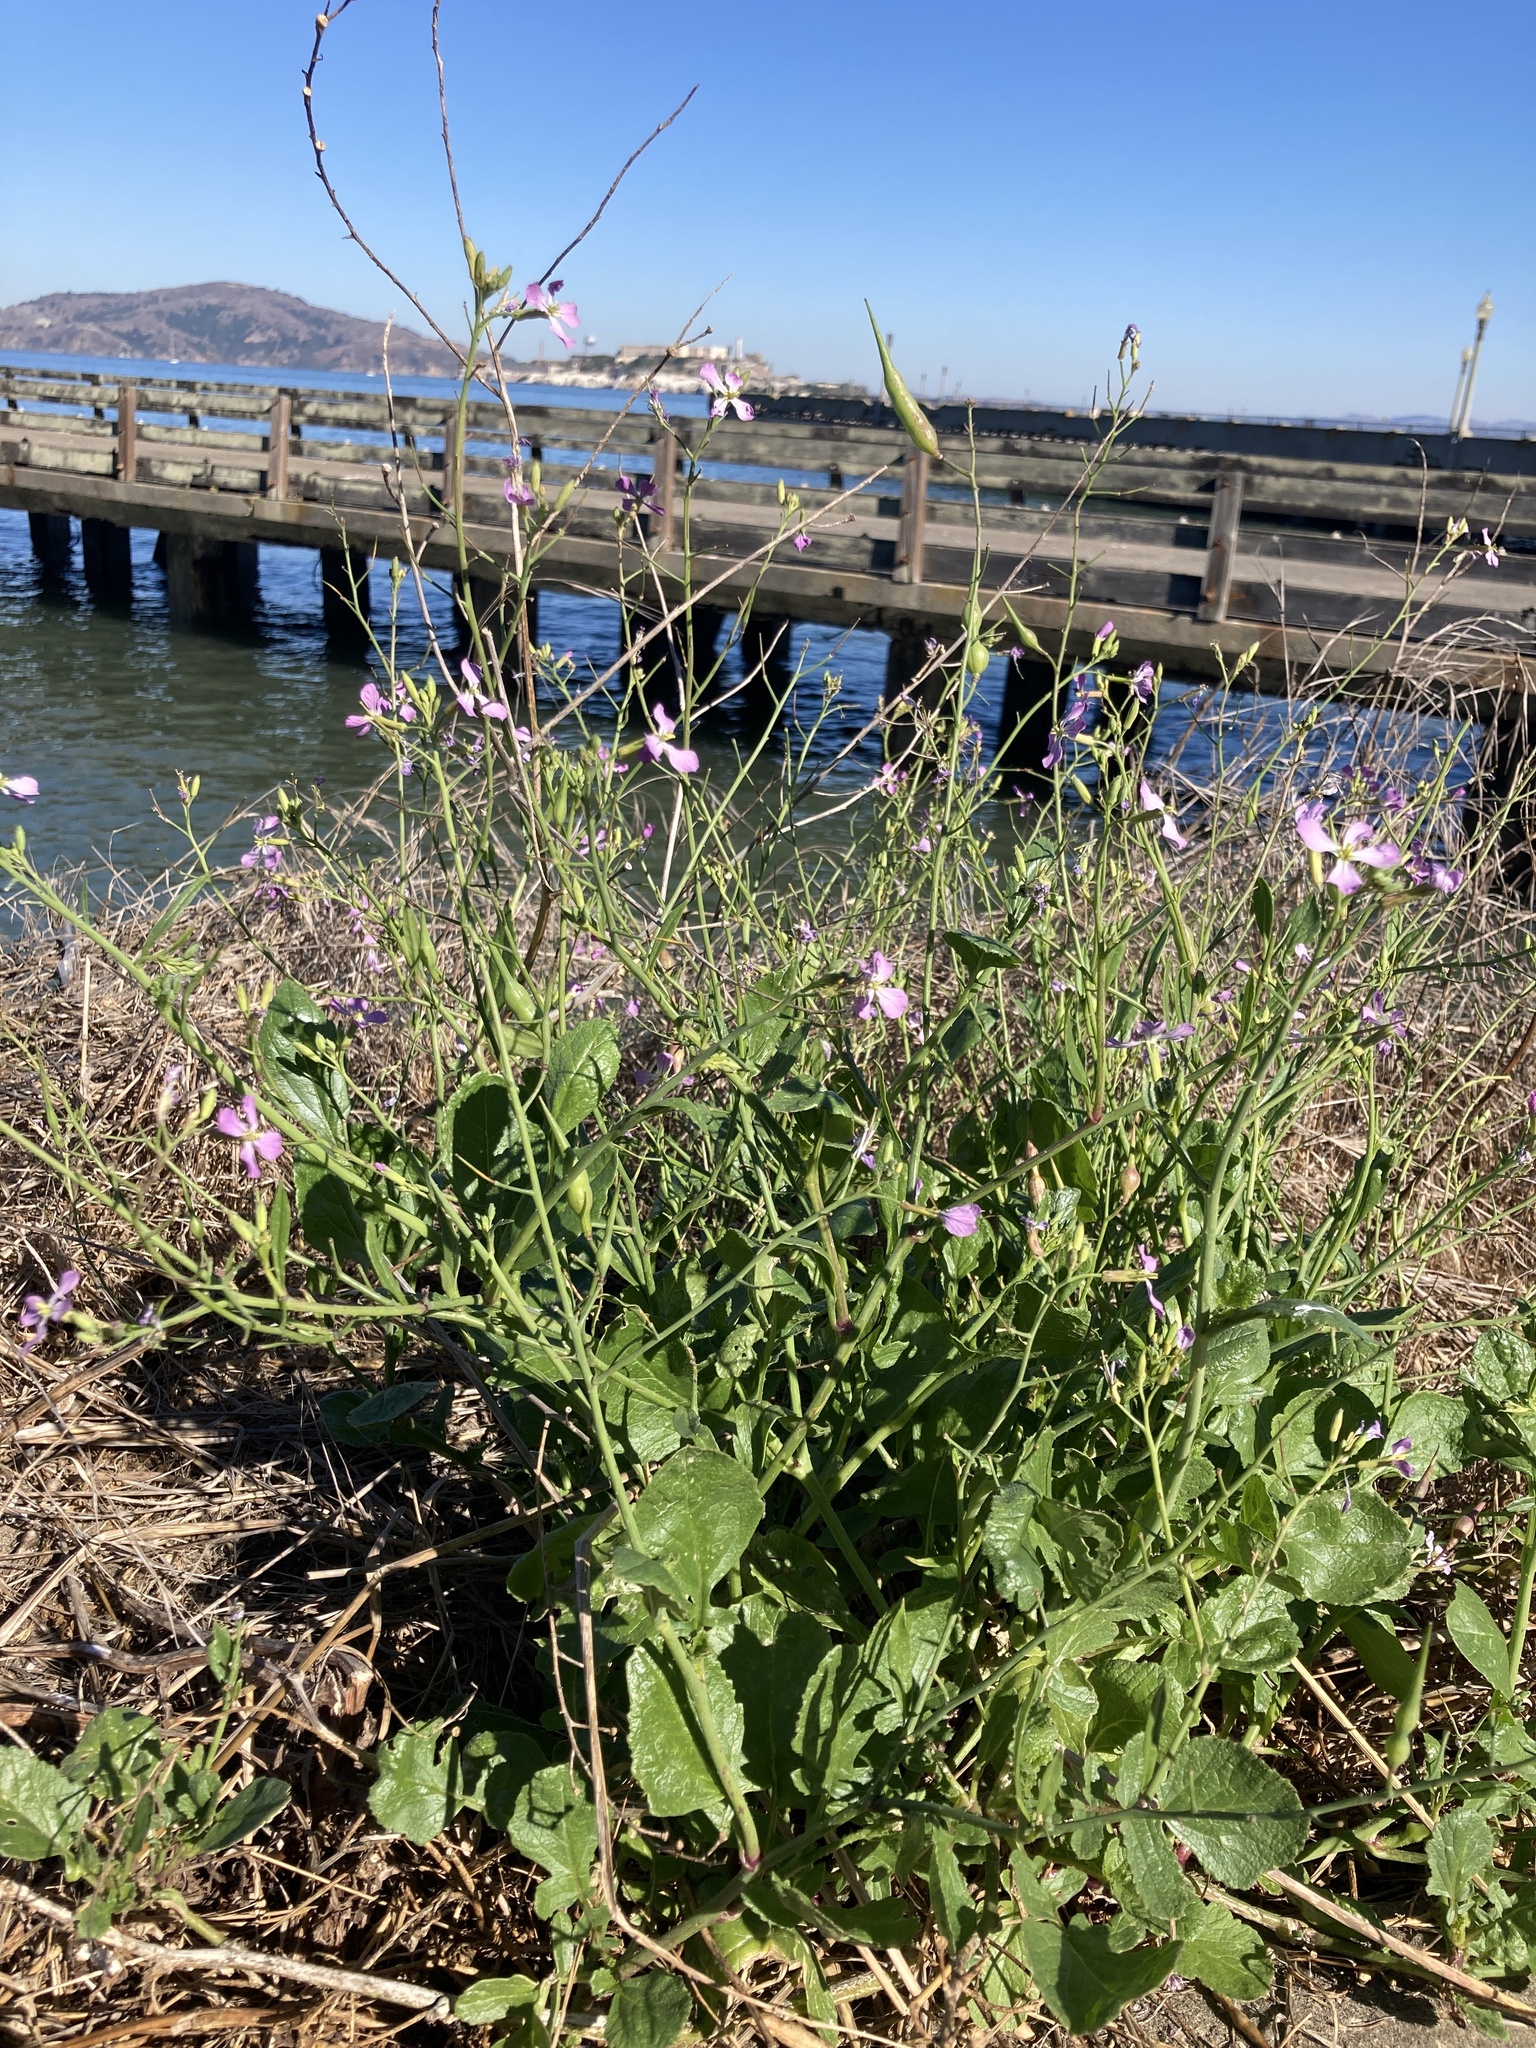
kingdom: Plantae
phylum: Tracheophyta
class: Magnoliopsida
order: Brassicales
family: Brassicaceae
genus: Raphanus
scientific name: Raphanus sativus
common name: Cultivated radish
